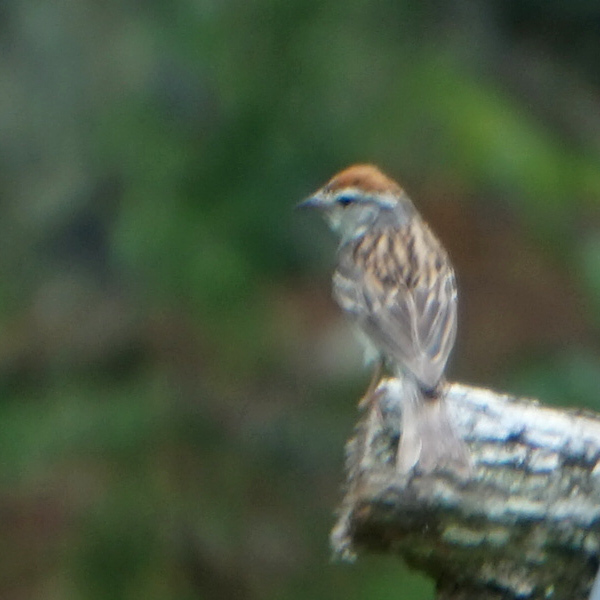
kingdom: Animalia
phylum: Chordata
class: Aves
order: Passeriformes
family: Passerellidae
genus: Spizella
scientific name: Spizella passerina
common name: Chipping sparrow
